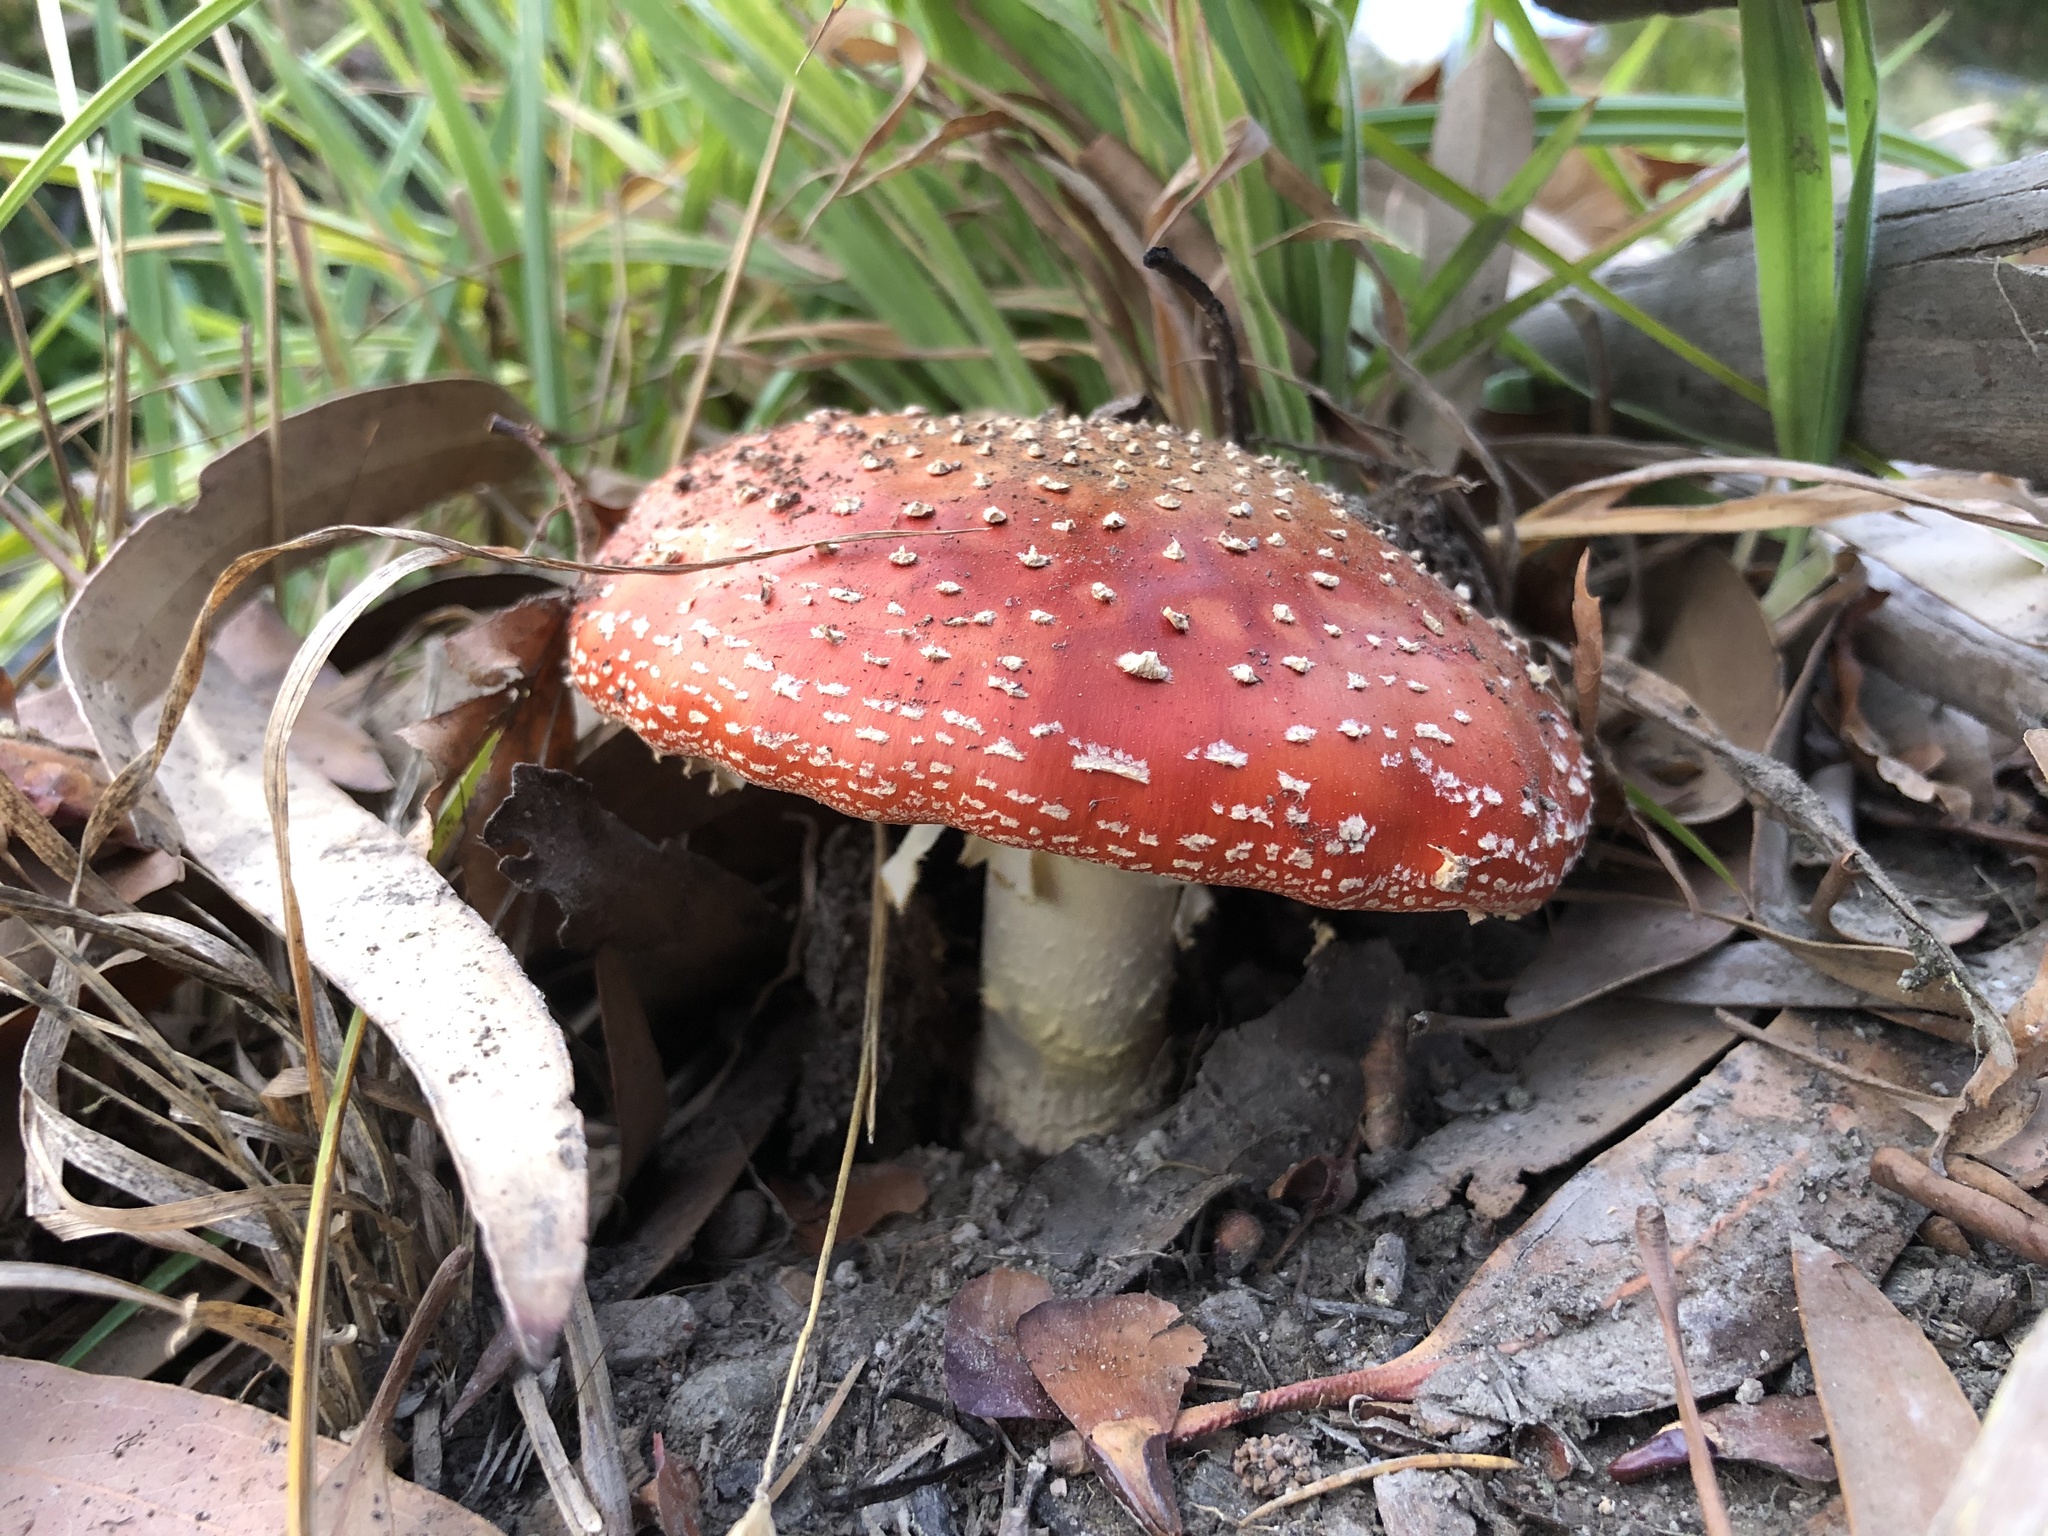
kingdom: Fungi
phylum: Basidiomycota
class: Agaricomycetes
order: Agaricales
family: Amanitaceae
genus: Amanita
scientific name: Amanita muscaria
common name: Fly agaric
